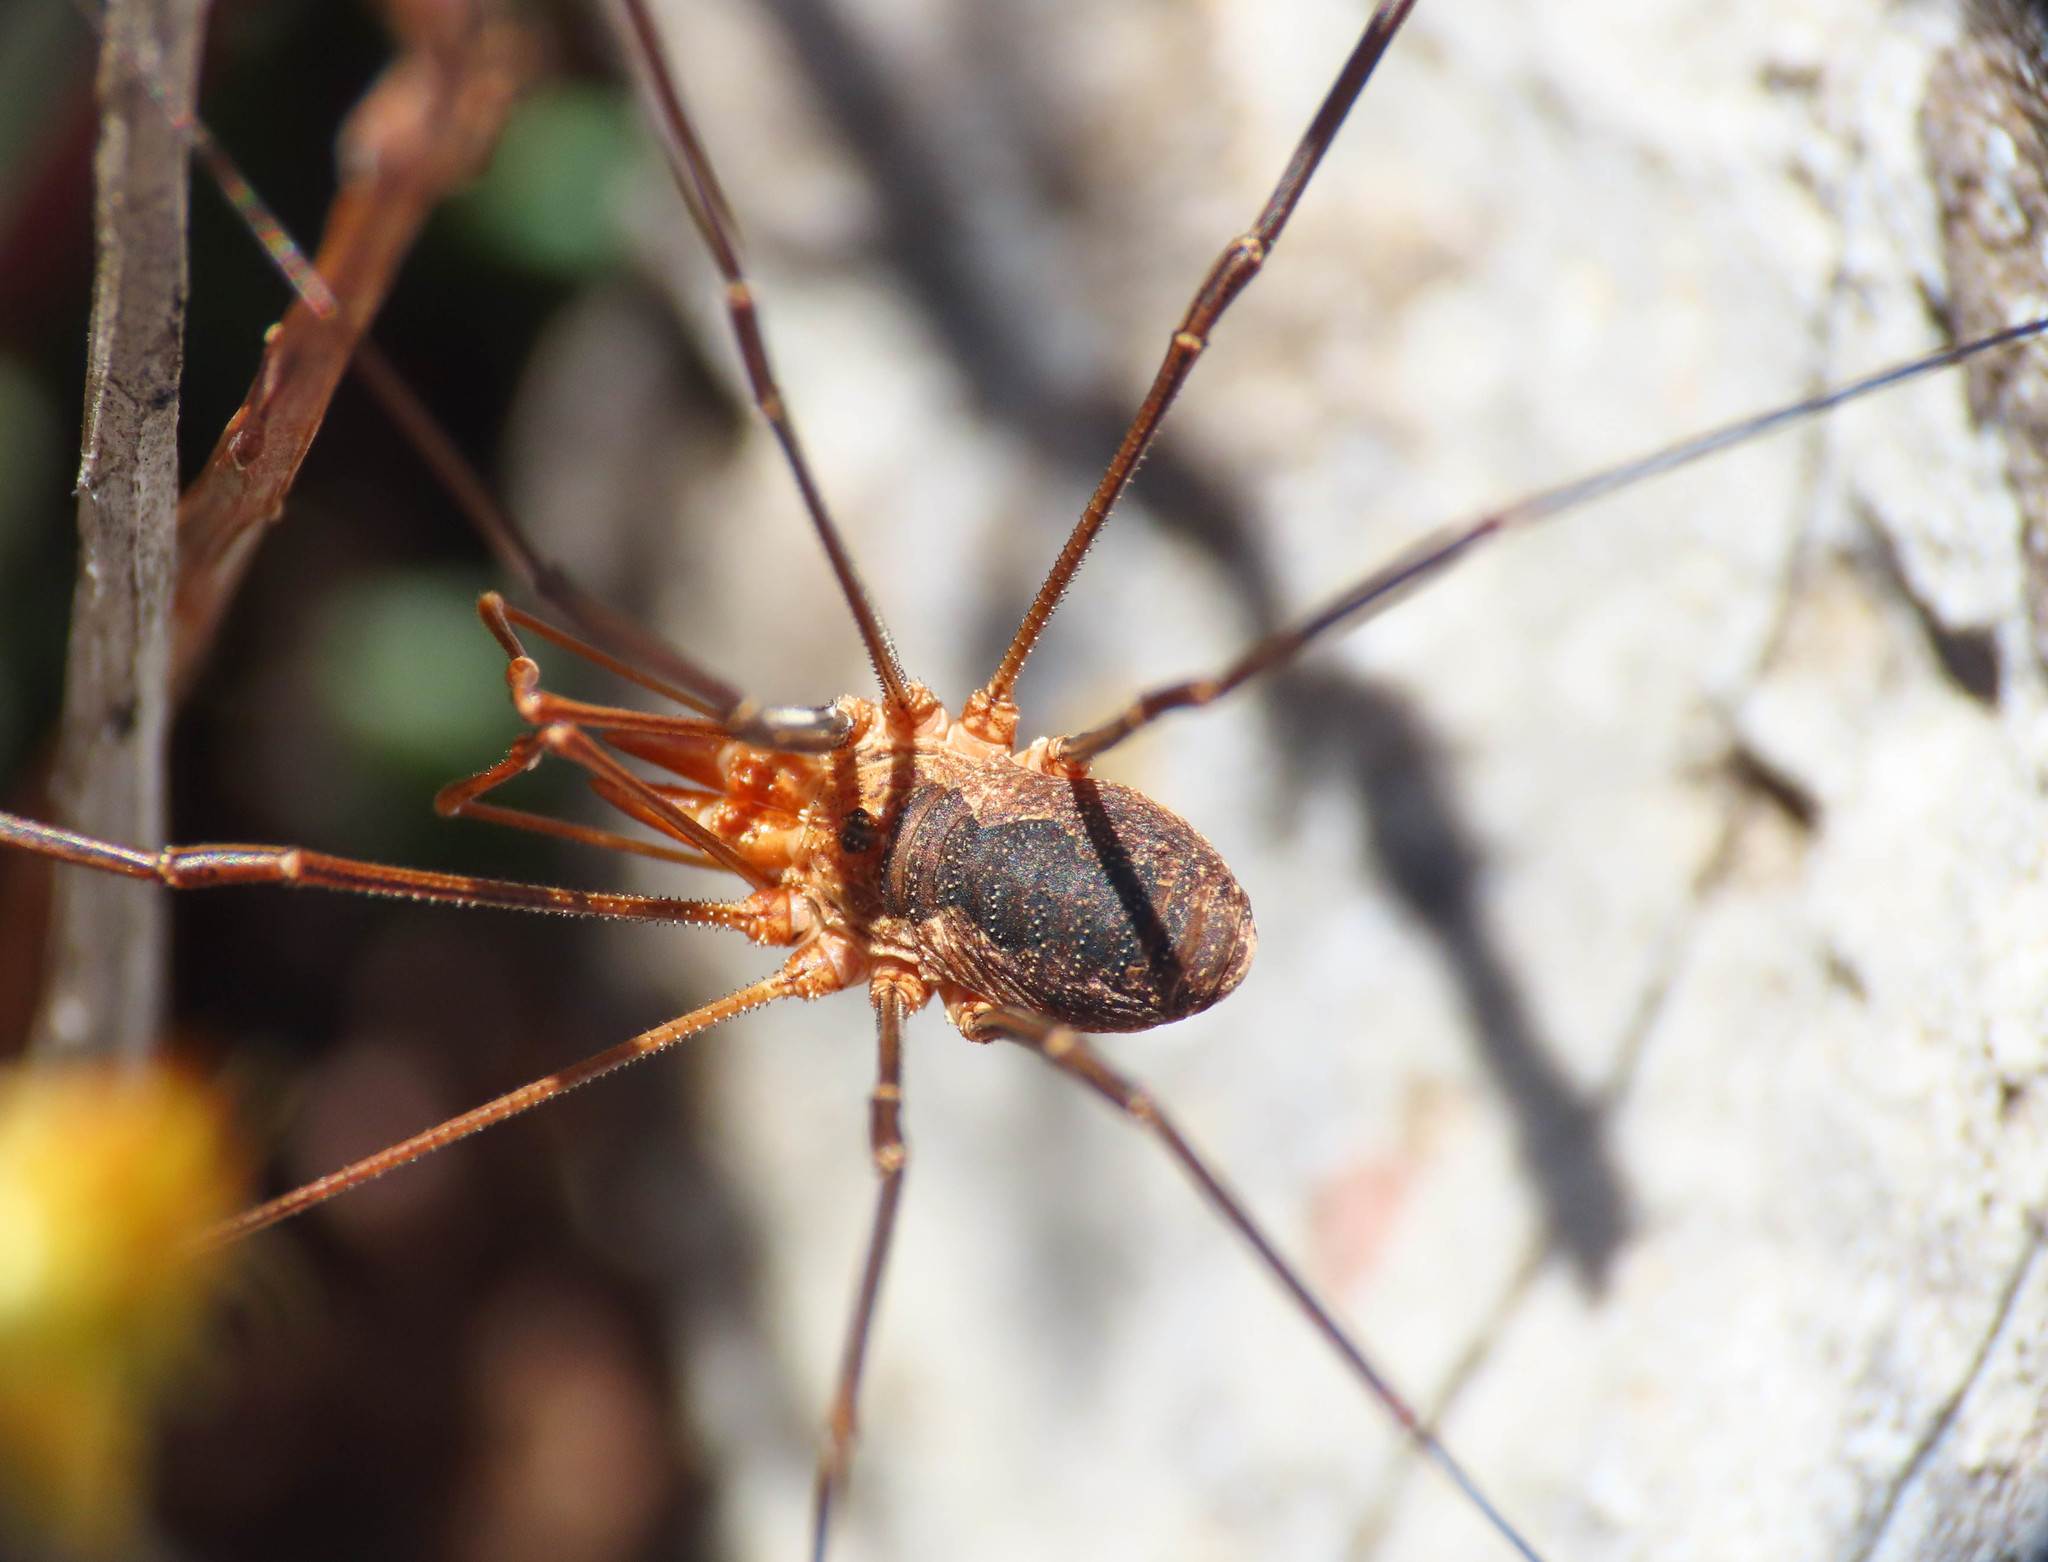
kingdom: Animalia
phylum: Arthropoda
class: Arachnida
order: Opiliones
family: Phalangiidae
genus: Phalangium
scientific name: Phalangium opilio
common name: Daddy longleg
